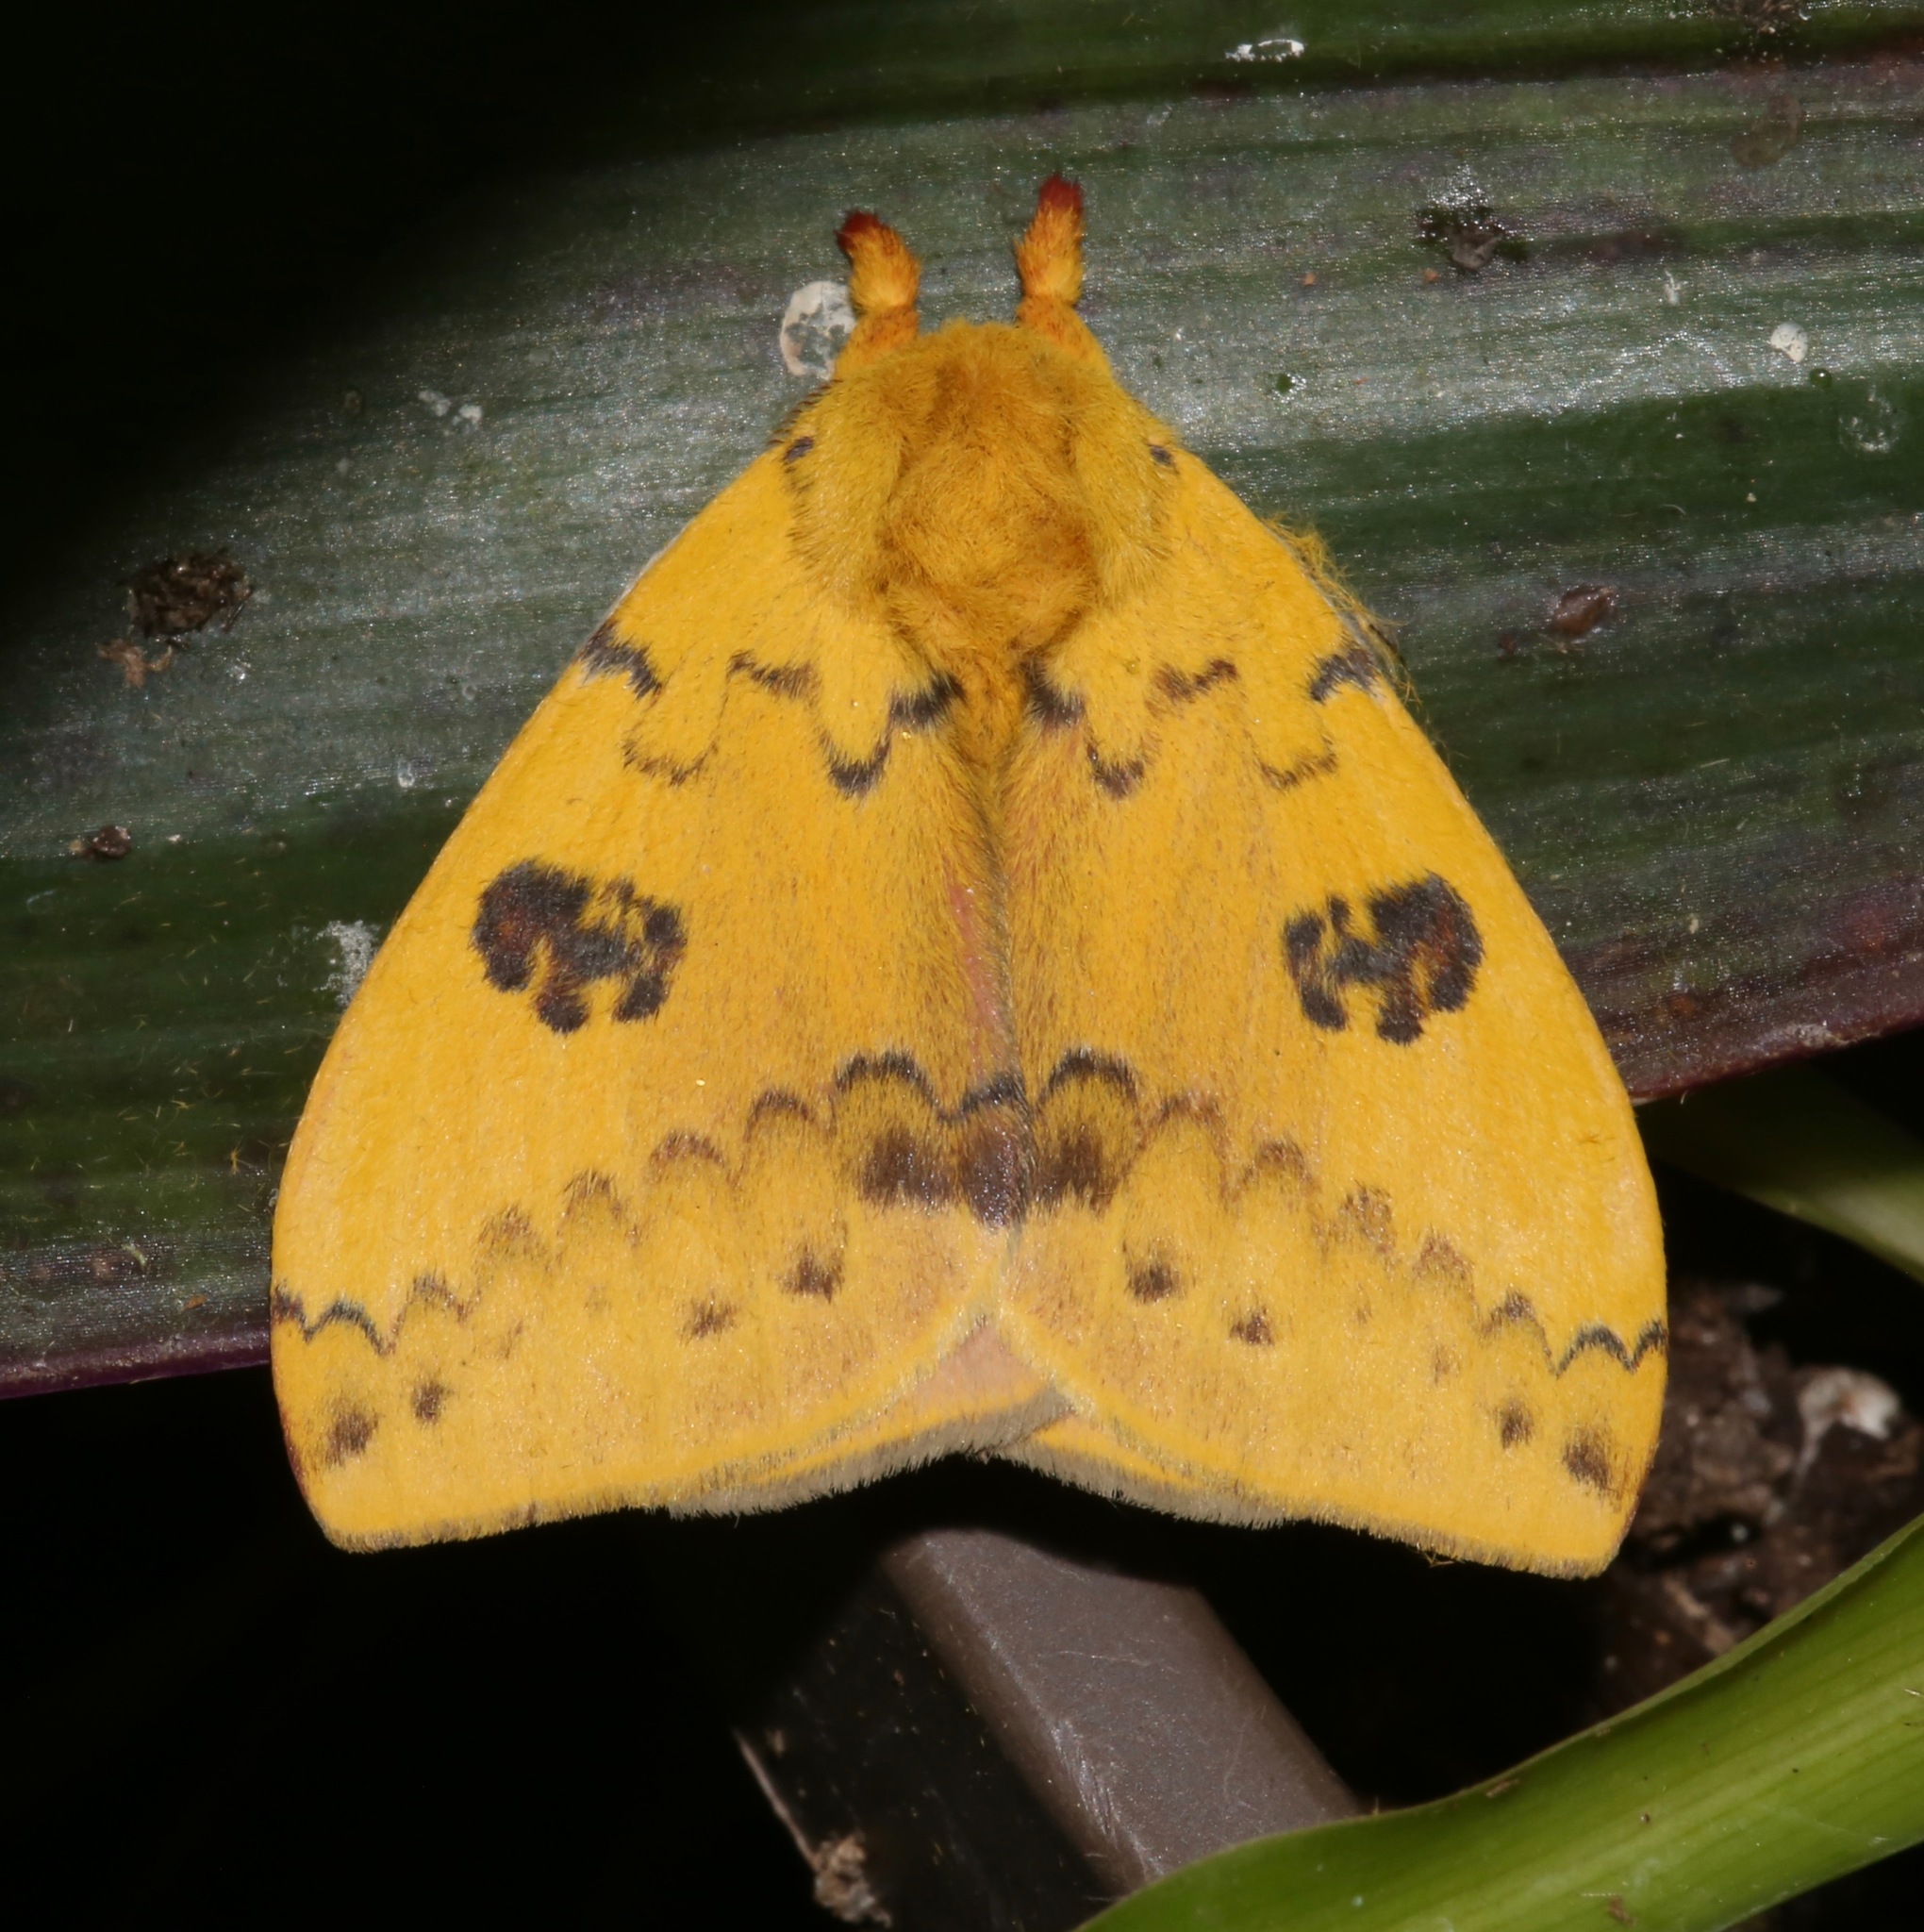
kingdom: Animalia
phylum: Arthropoda
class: Insecta
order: Lepidoptera
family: Saturniidae
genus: Automeris
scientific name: Automeris io
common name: Io moth
